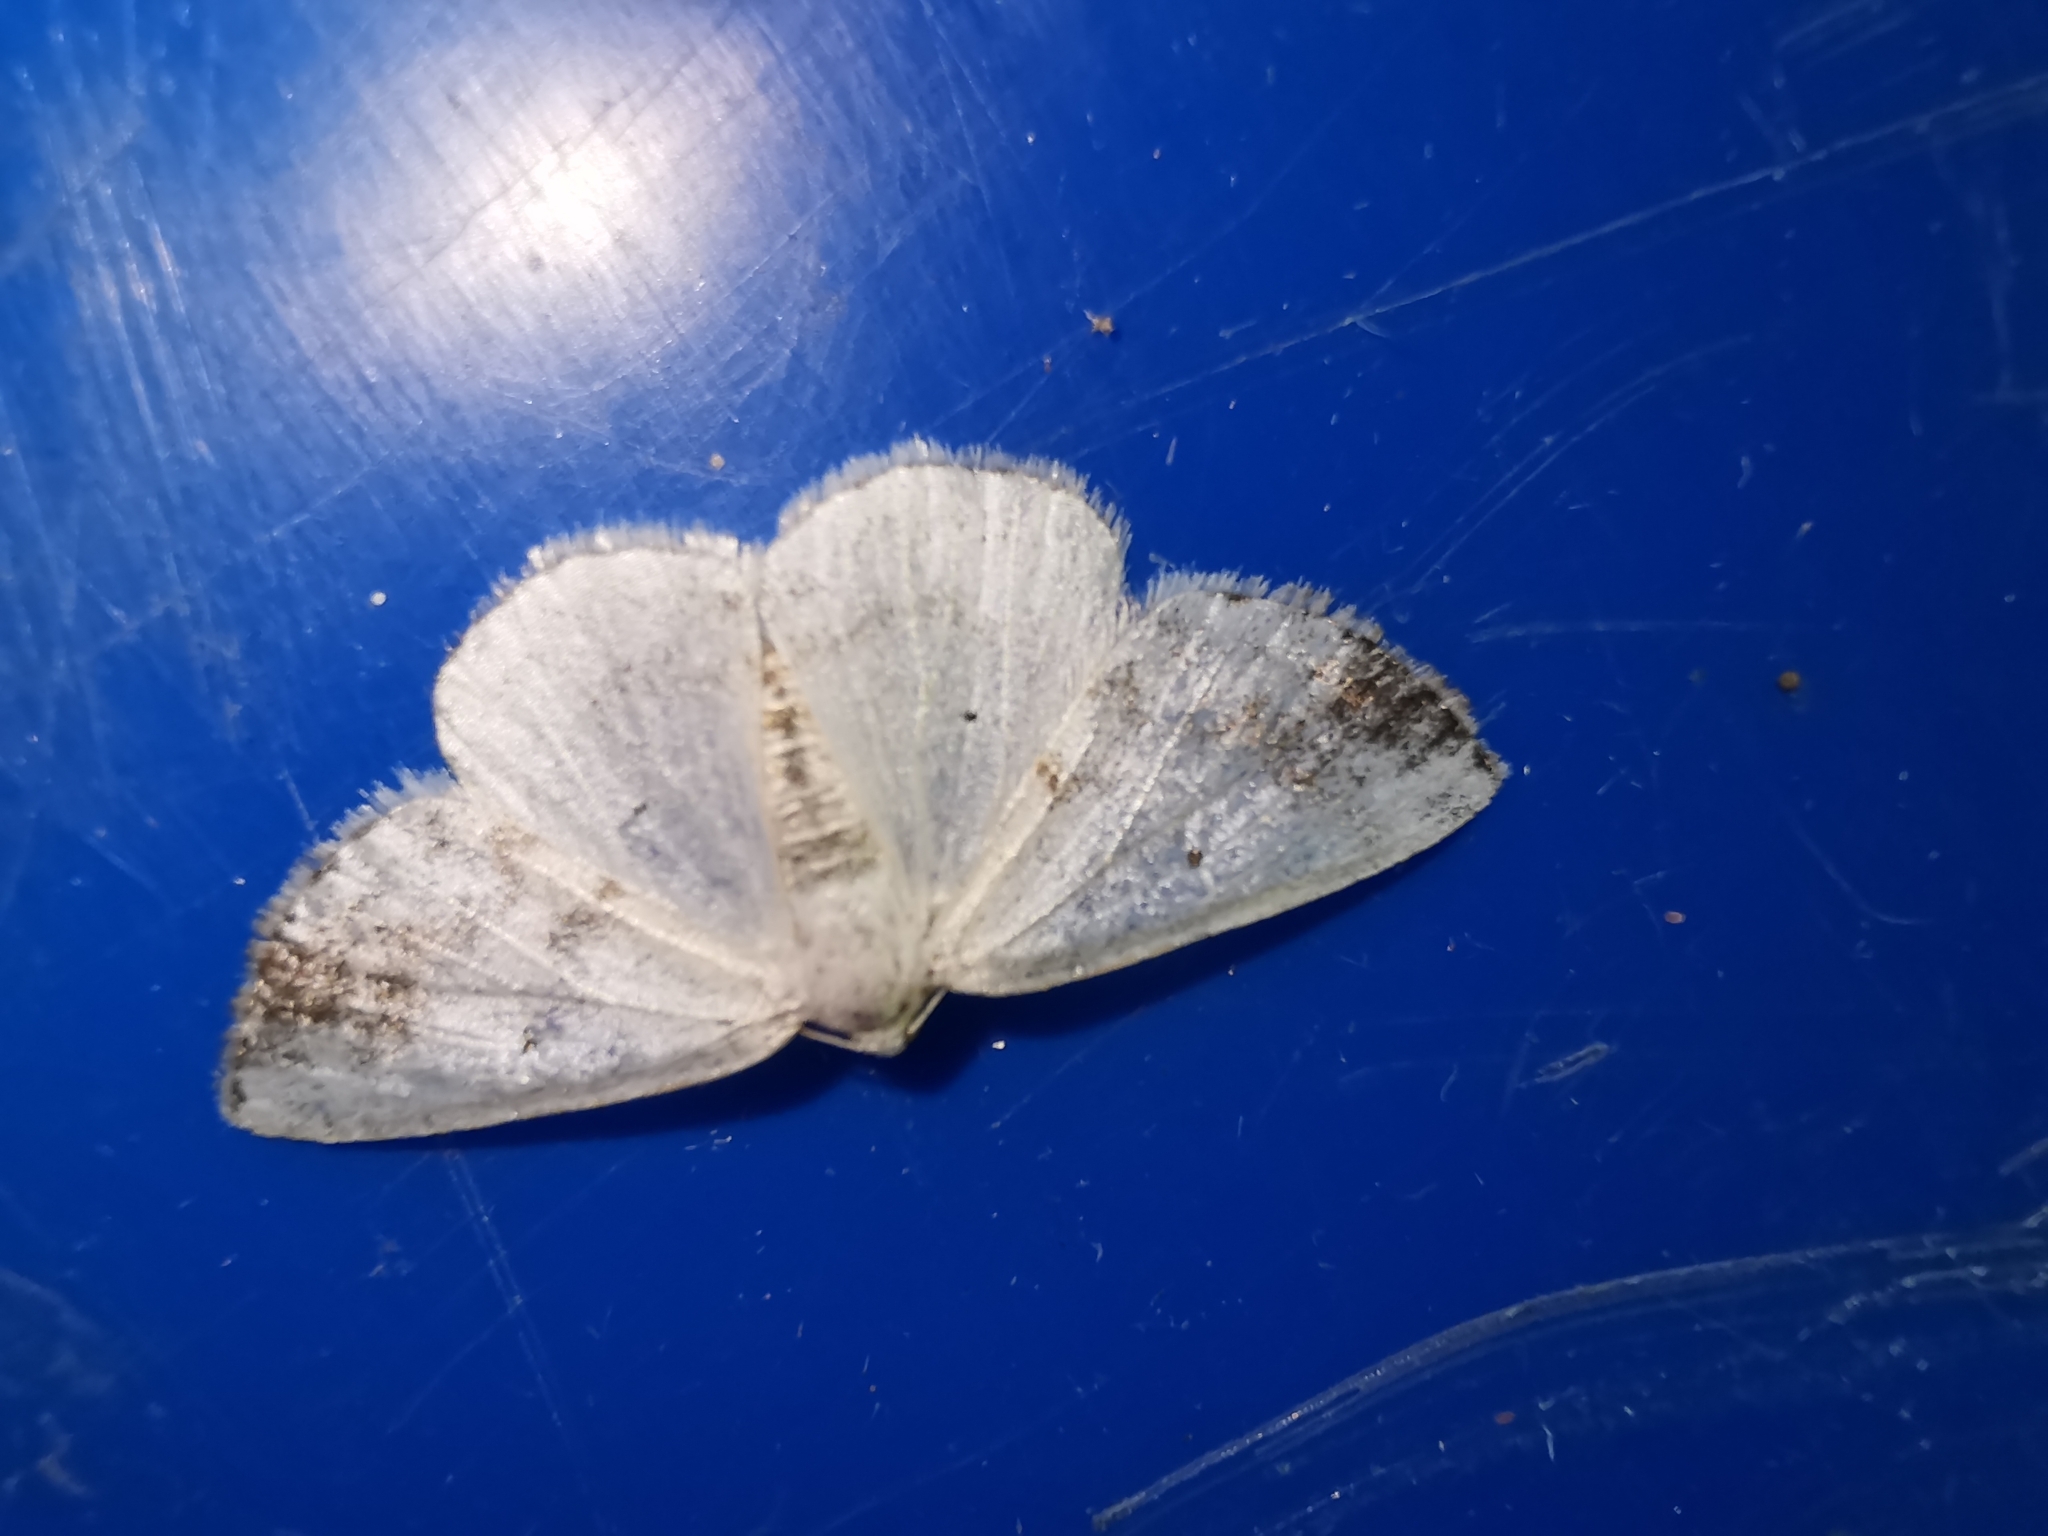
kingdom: Animalia
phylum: Arthropoda
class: Insecta
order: Lepidoptera
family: Geometridae
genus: Lomographa
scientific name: Lomographa temerata
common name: Clouded silver
